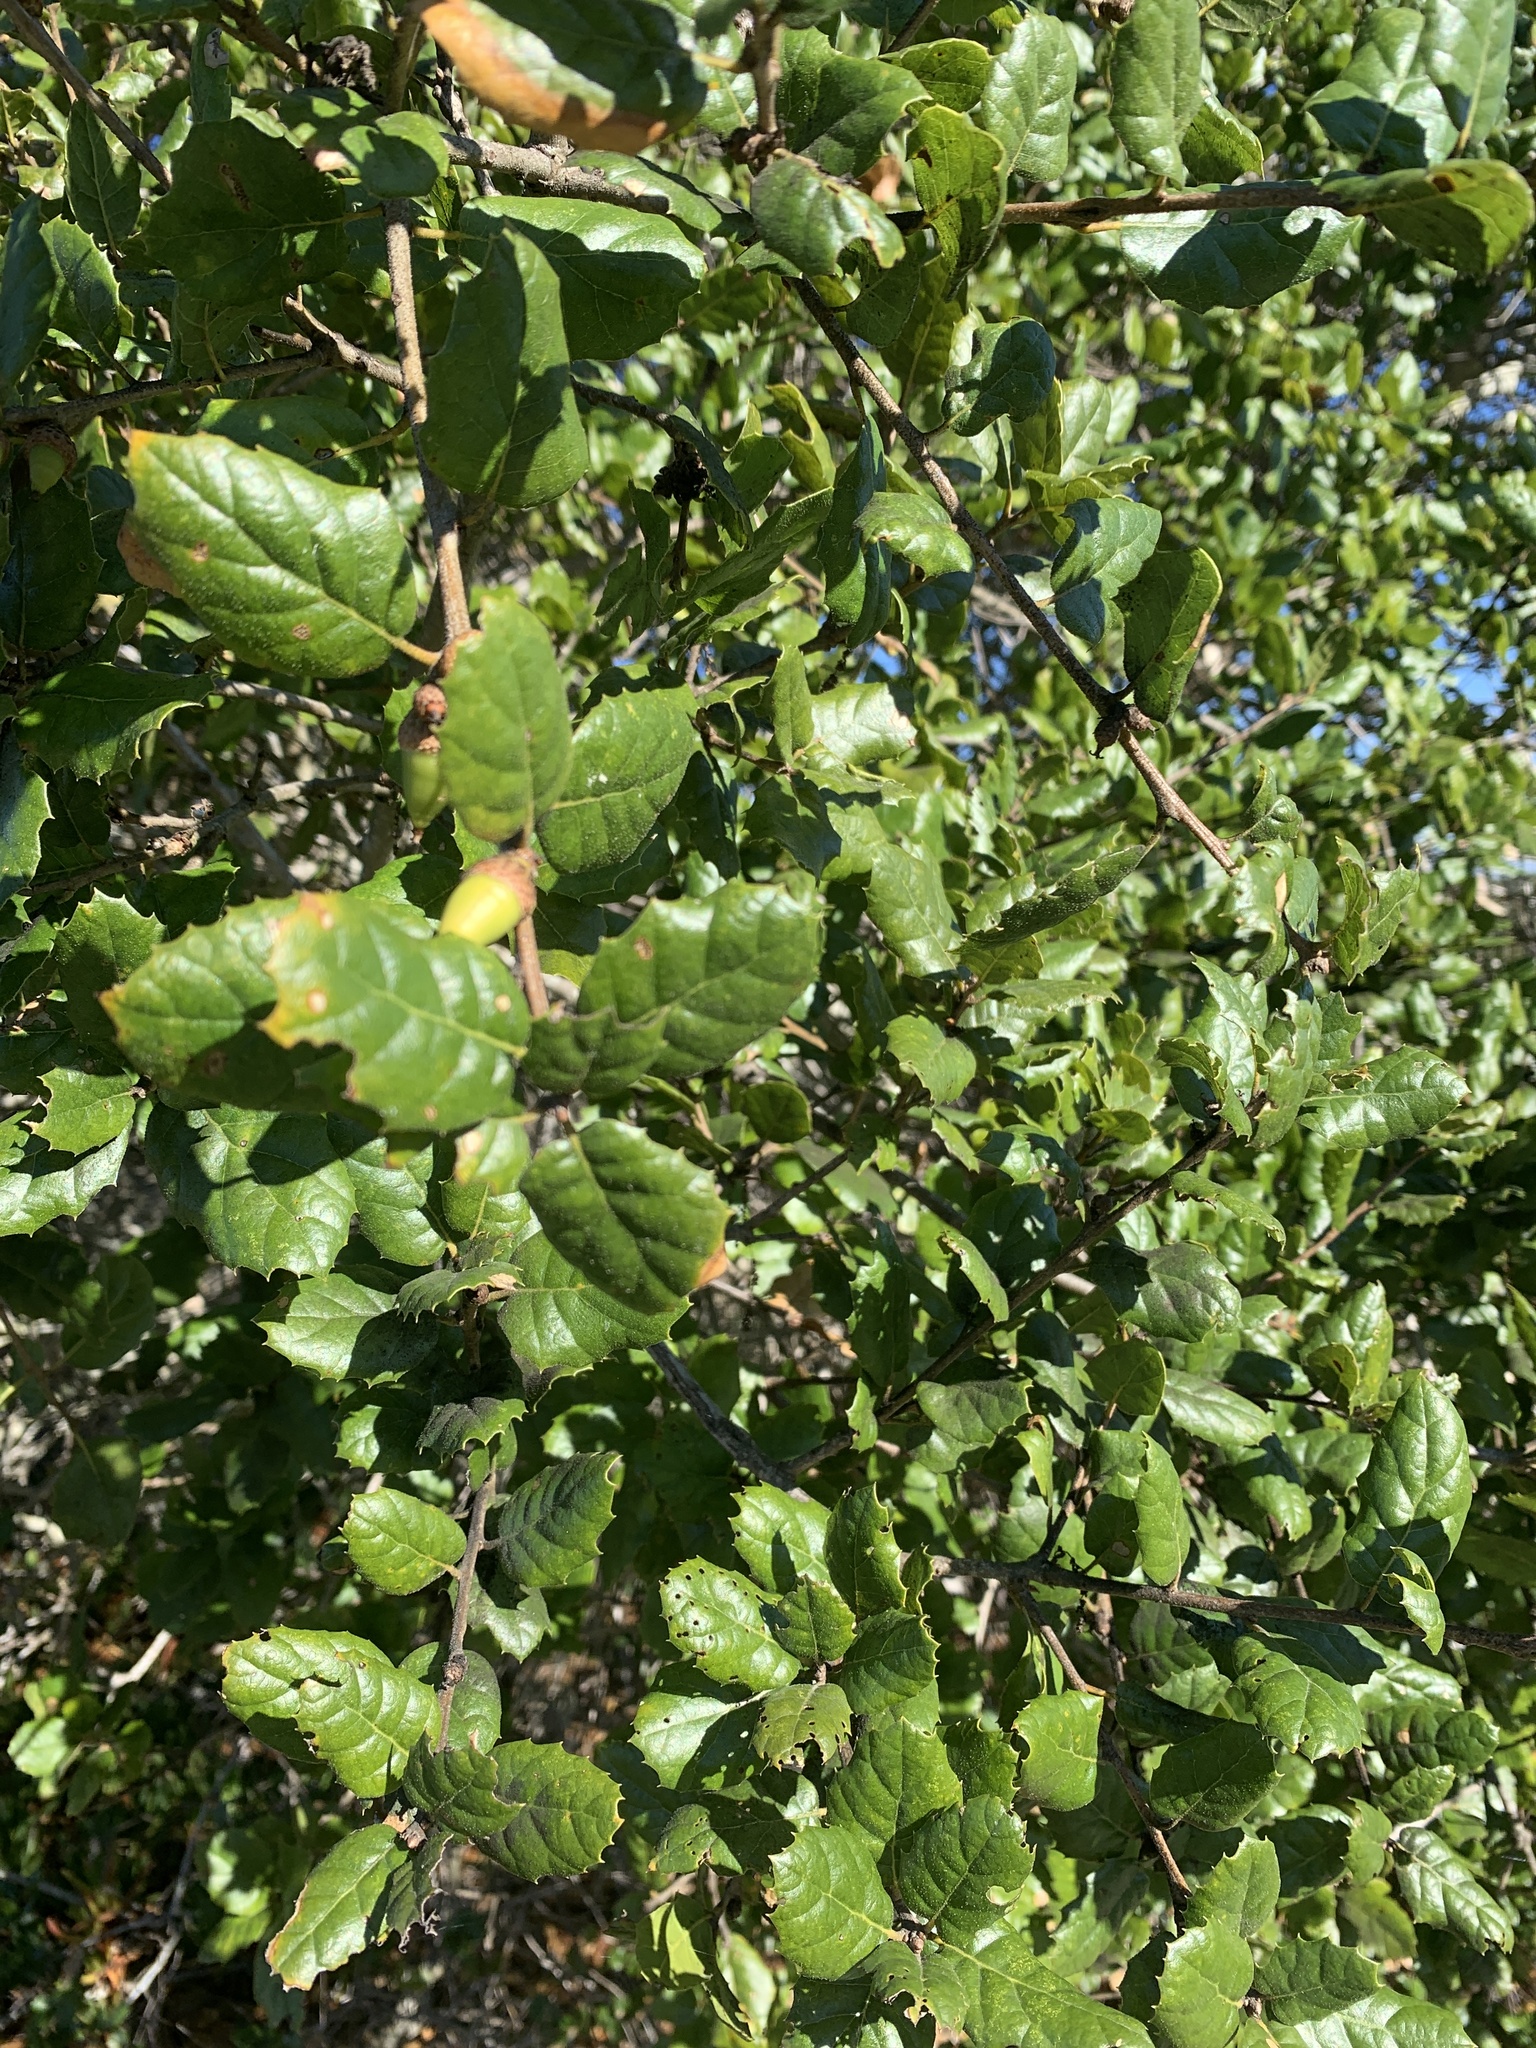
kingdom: Plantae
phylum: Tracheophyta
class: Magnoliopsida
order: Fagales
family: Fagaceae
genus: Quercus
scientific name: Quercus agrifolia
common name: California live oak
